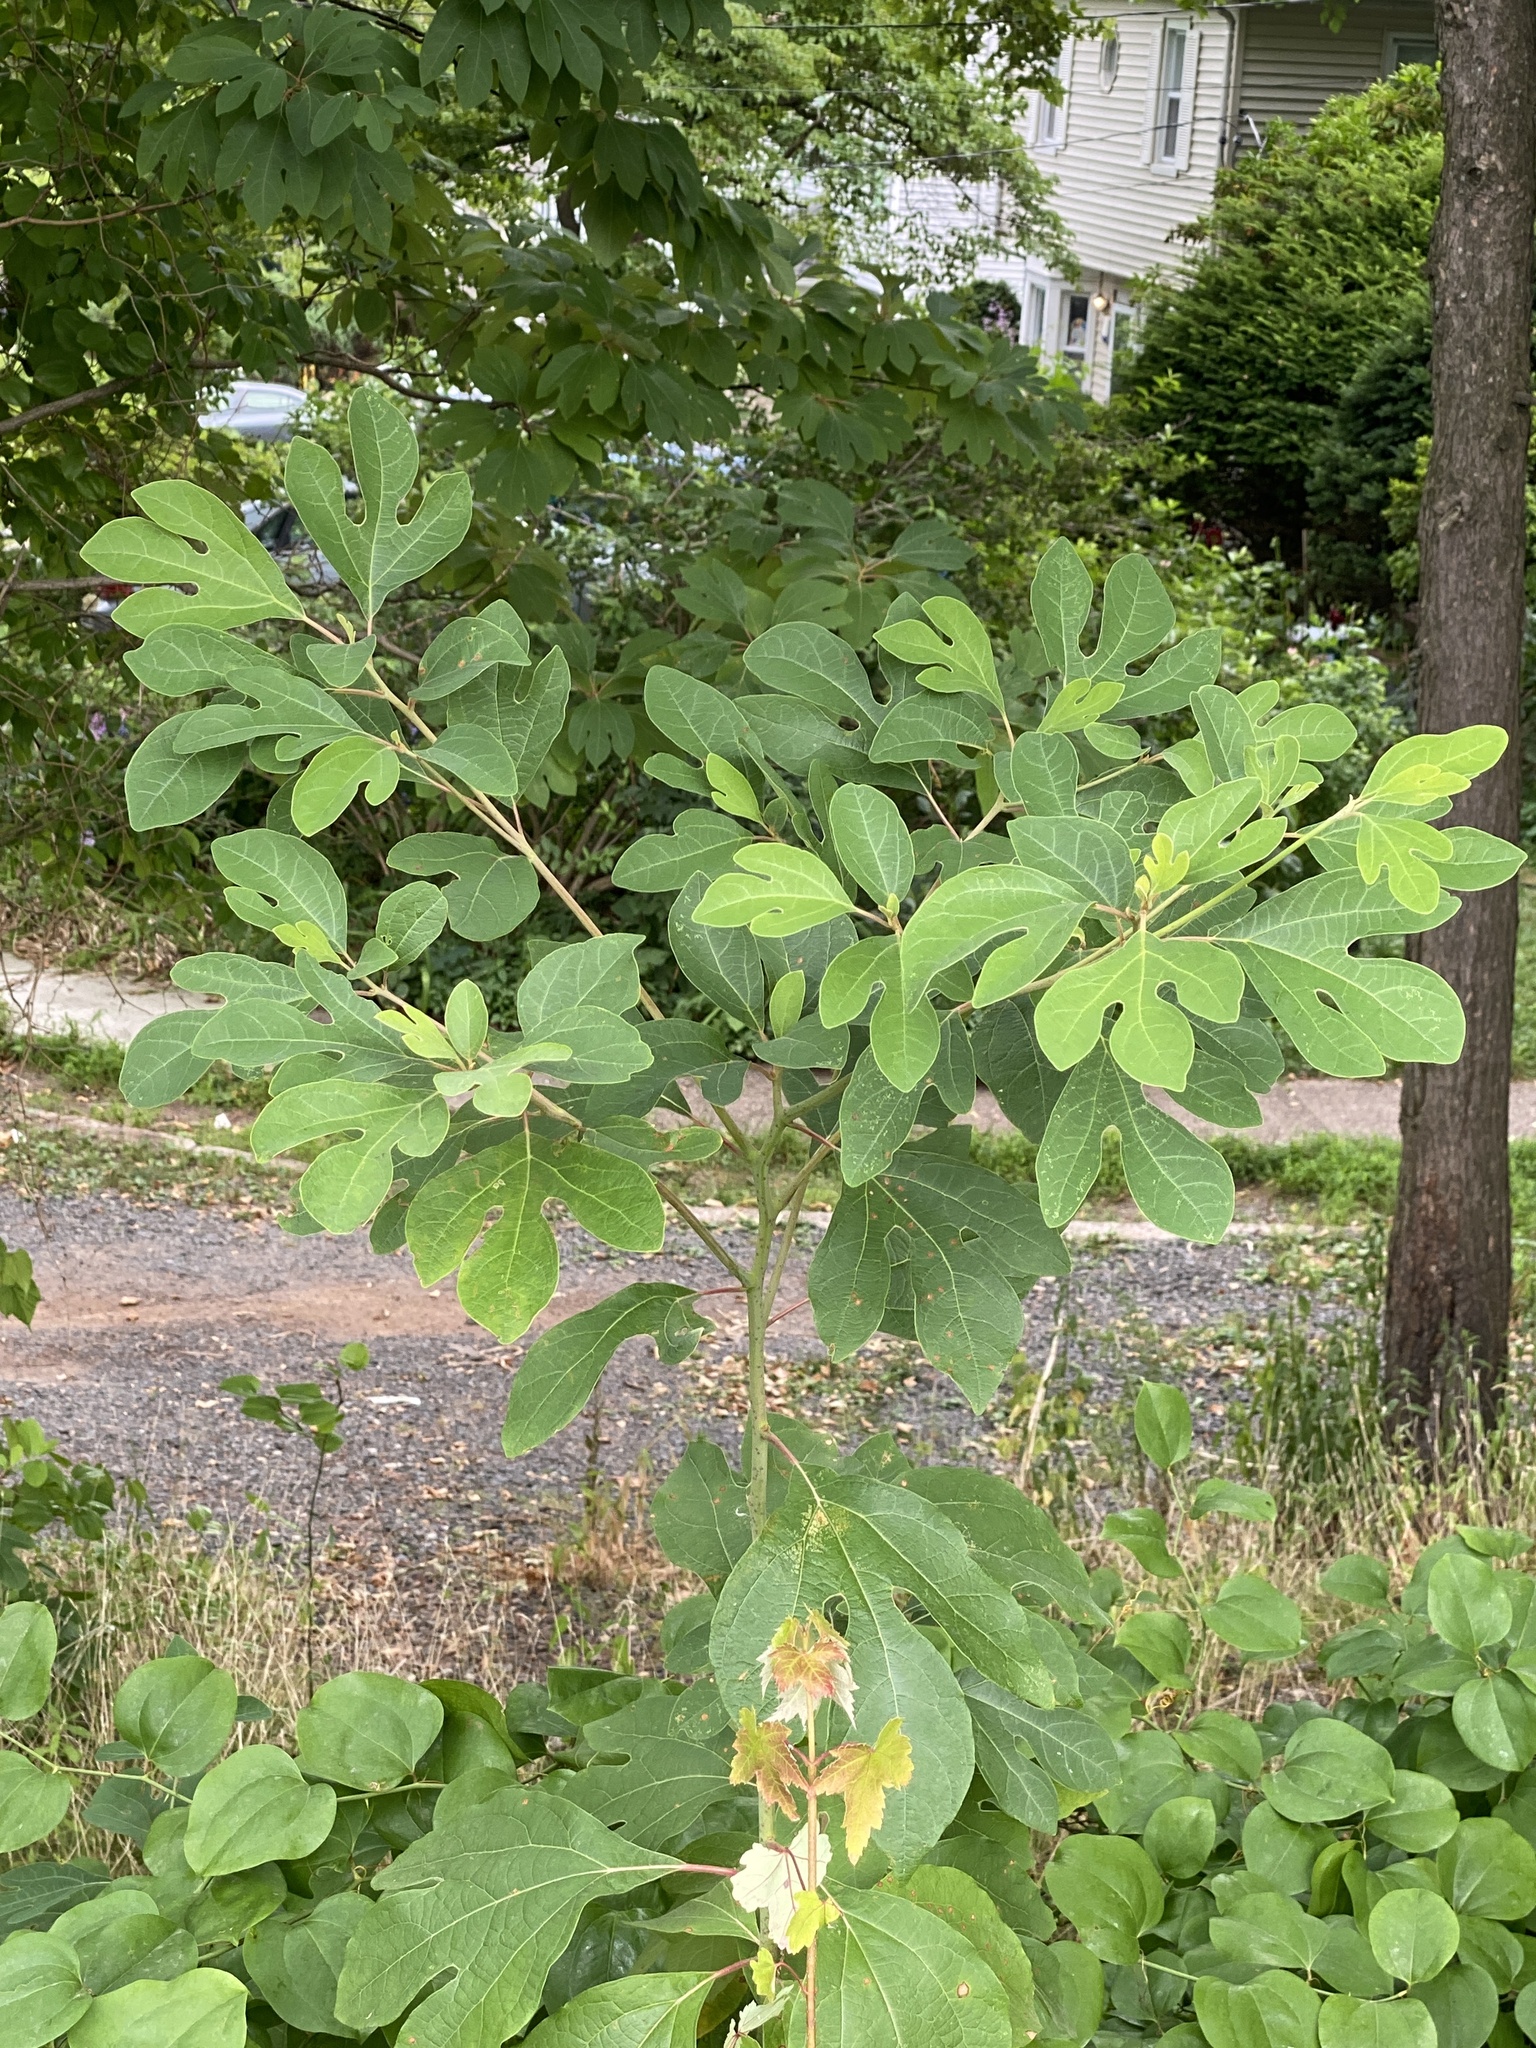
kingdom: Plantae
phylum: Tracheophyta
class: Magnoliopsida
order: Laurales
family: Lauraceae
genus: Sassafras
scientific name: Sassafras albidum
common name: Sassafras
